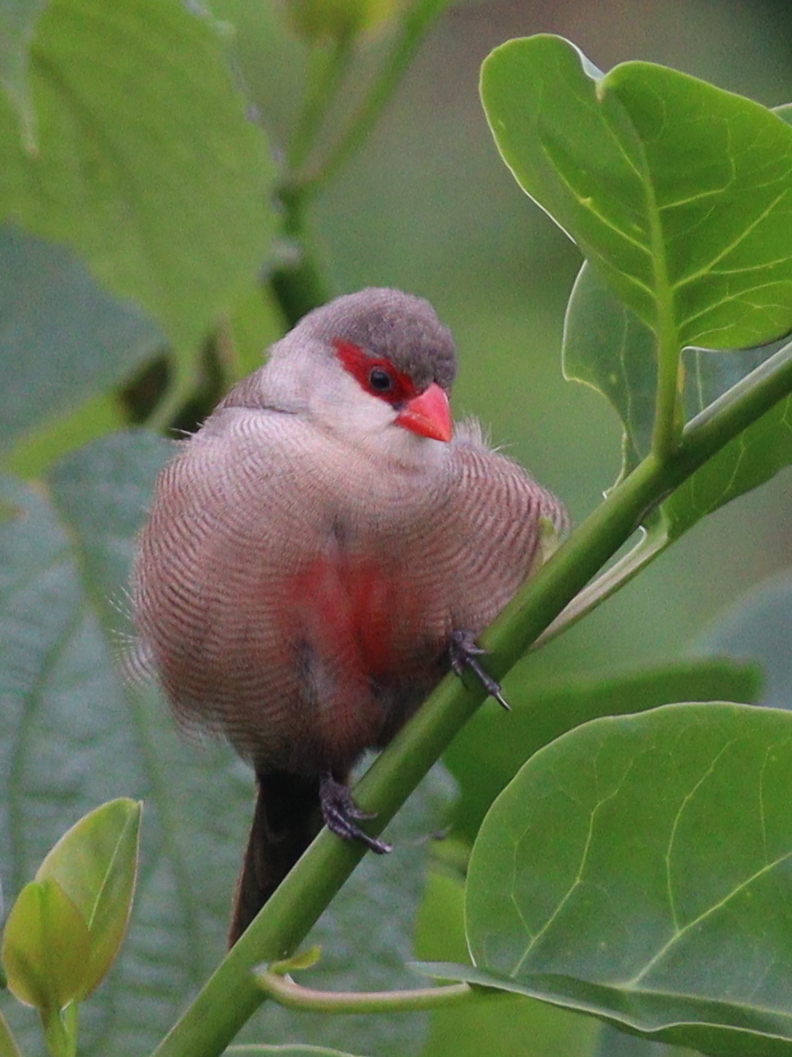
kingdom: Animalia
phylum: Chordata
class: Aves
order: Passeriformes
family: Estrildidae
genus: Estrilda
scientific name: Estrilda astrild
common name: Common waxbill
